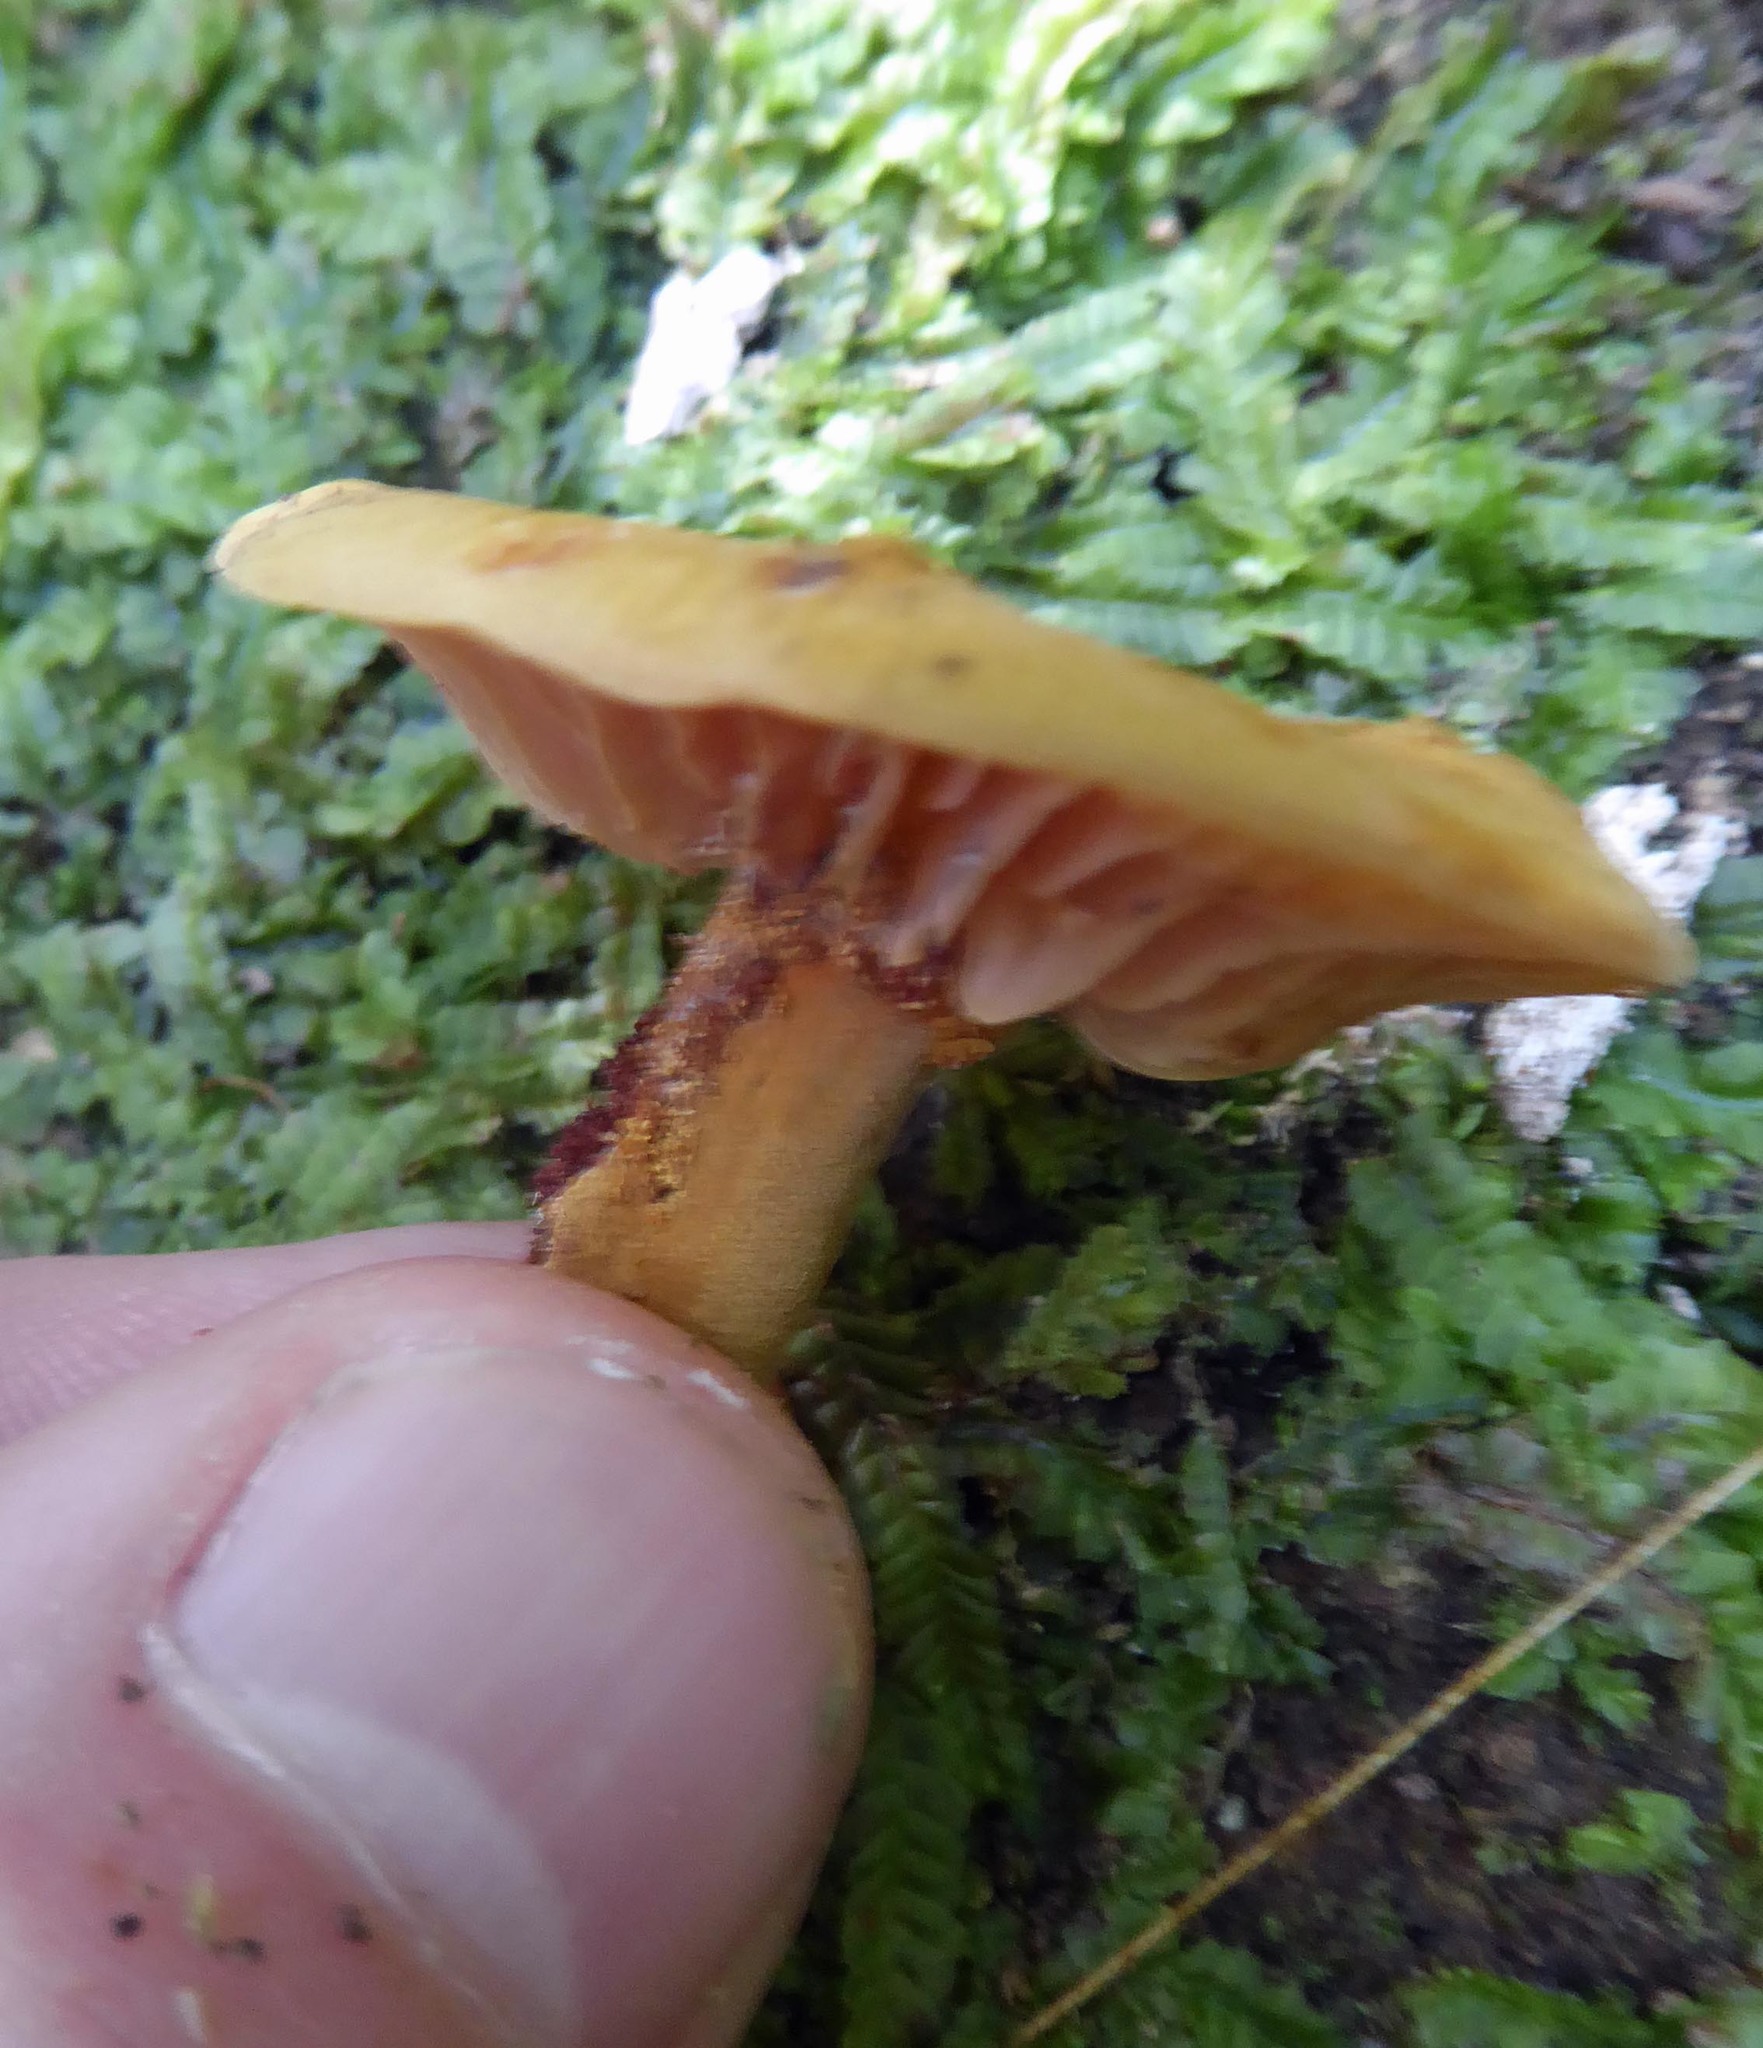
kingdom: Fungi
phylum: Basidiomycota
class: Agaricomycetes
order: Agaricales
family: Mycenaceae
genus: Heimiomyces
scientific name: Heimiomyces velutipes
